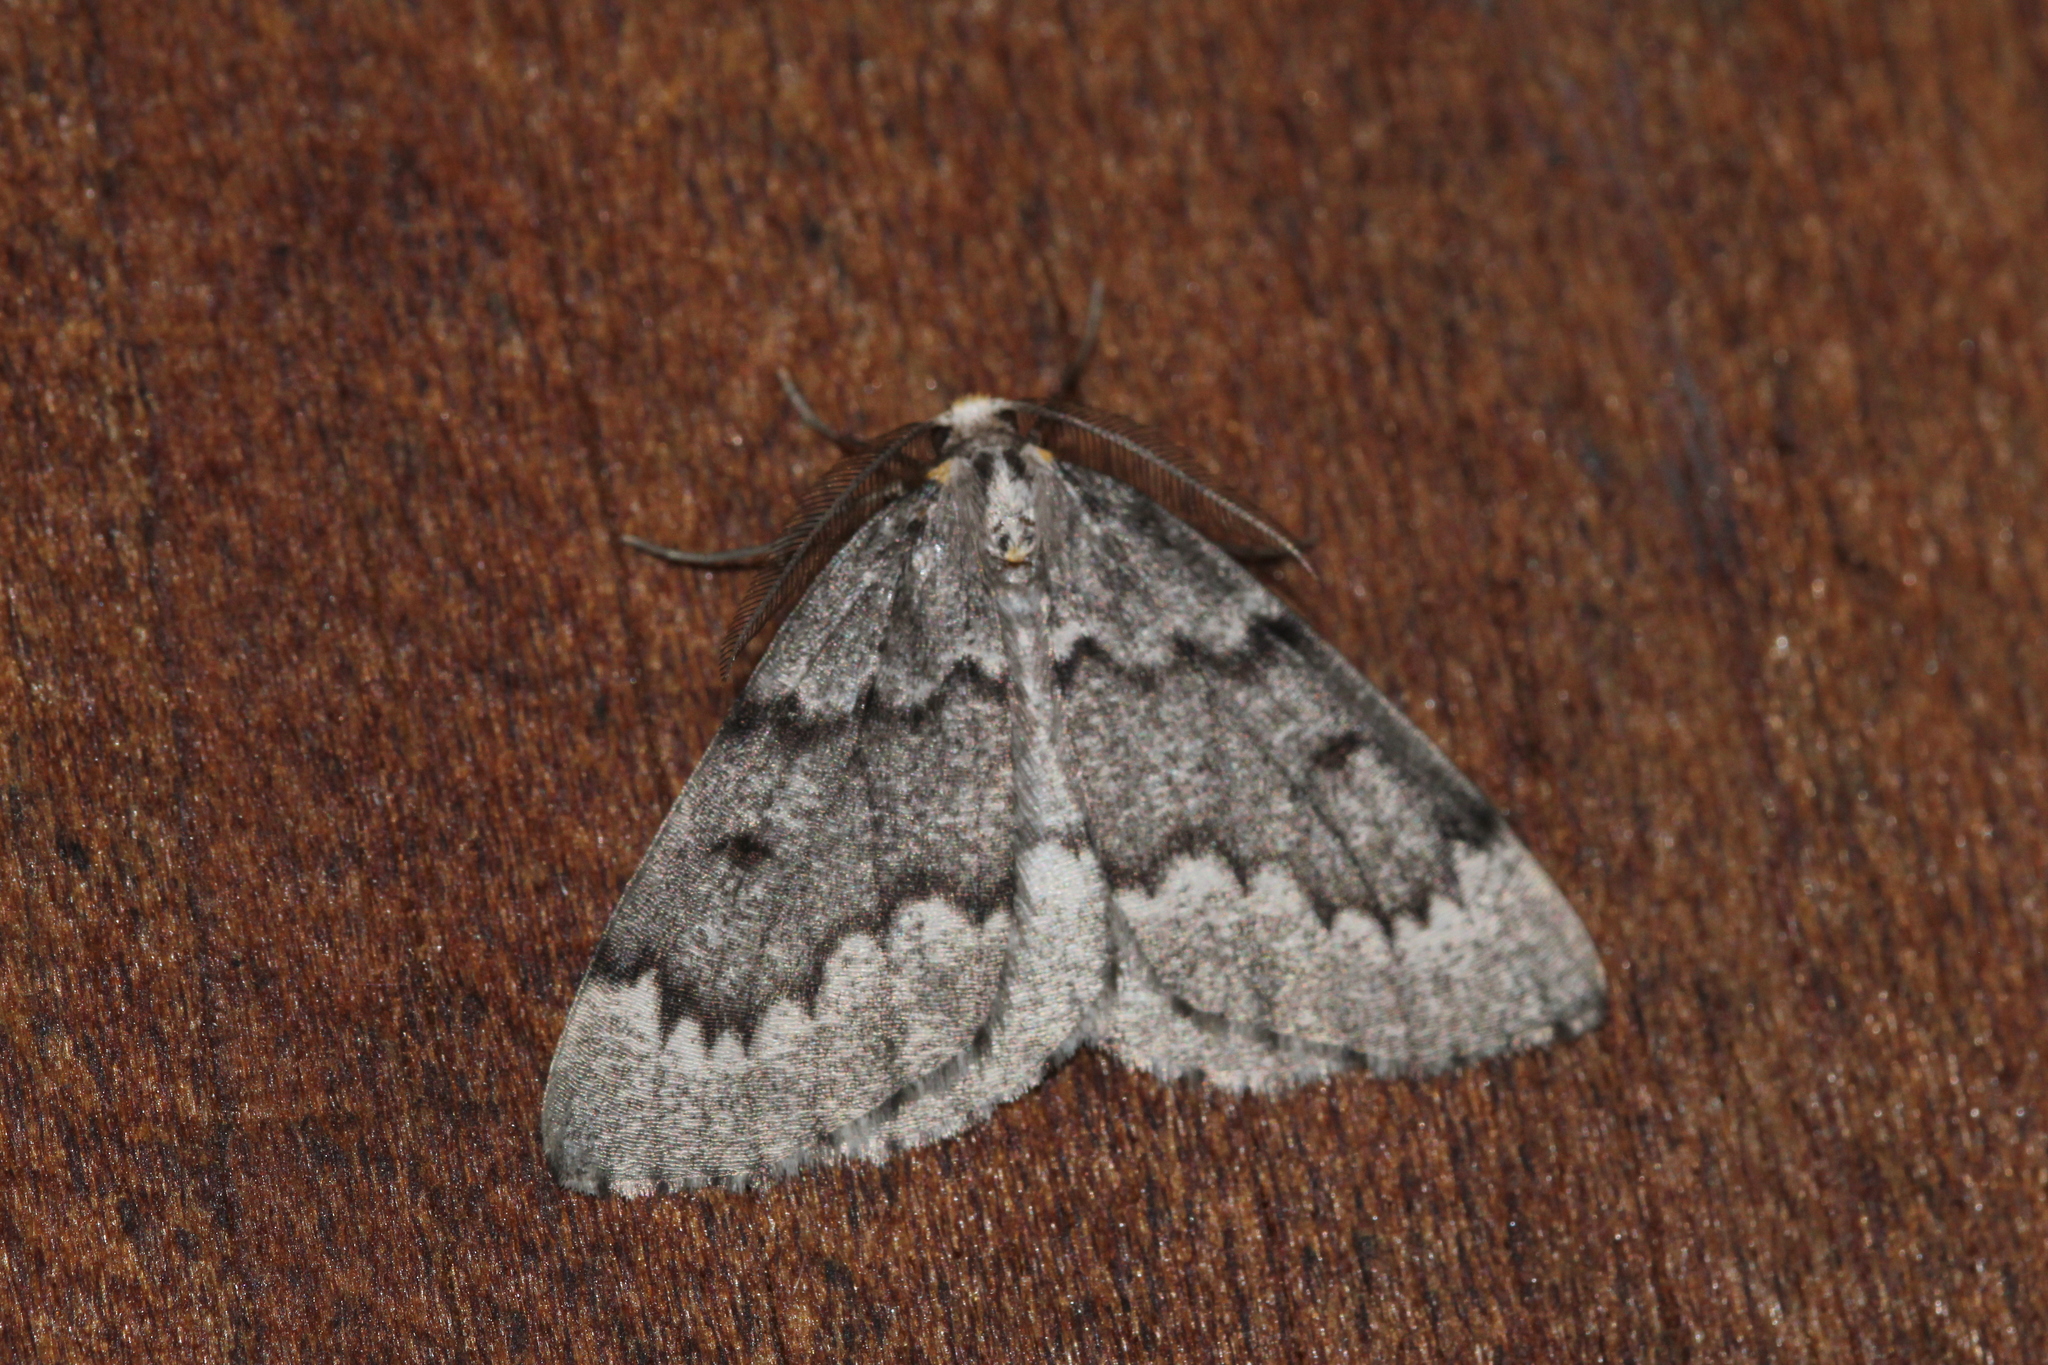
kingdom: Animalia
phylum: Arthropoda
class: Insecta
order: Lepidoptera
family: Geometridae
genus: Nepytia
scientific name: Nepytia canosaria
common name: False hemlock looper
